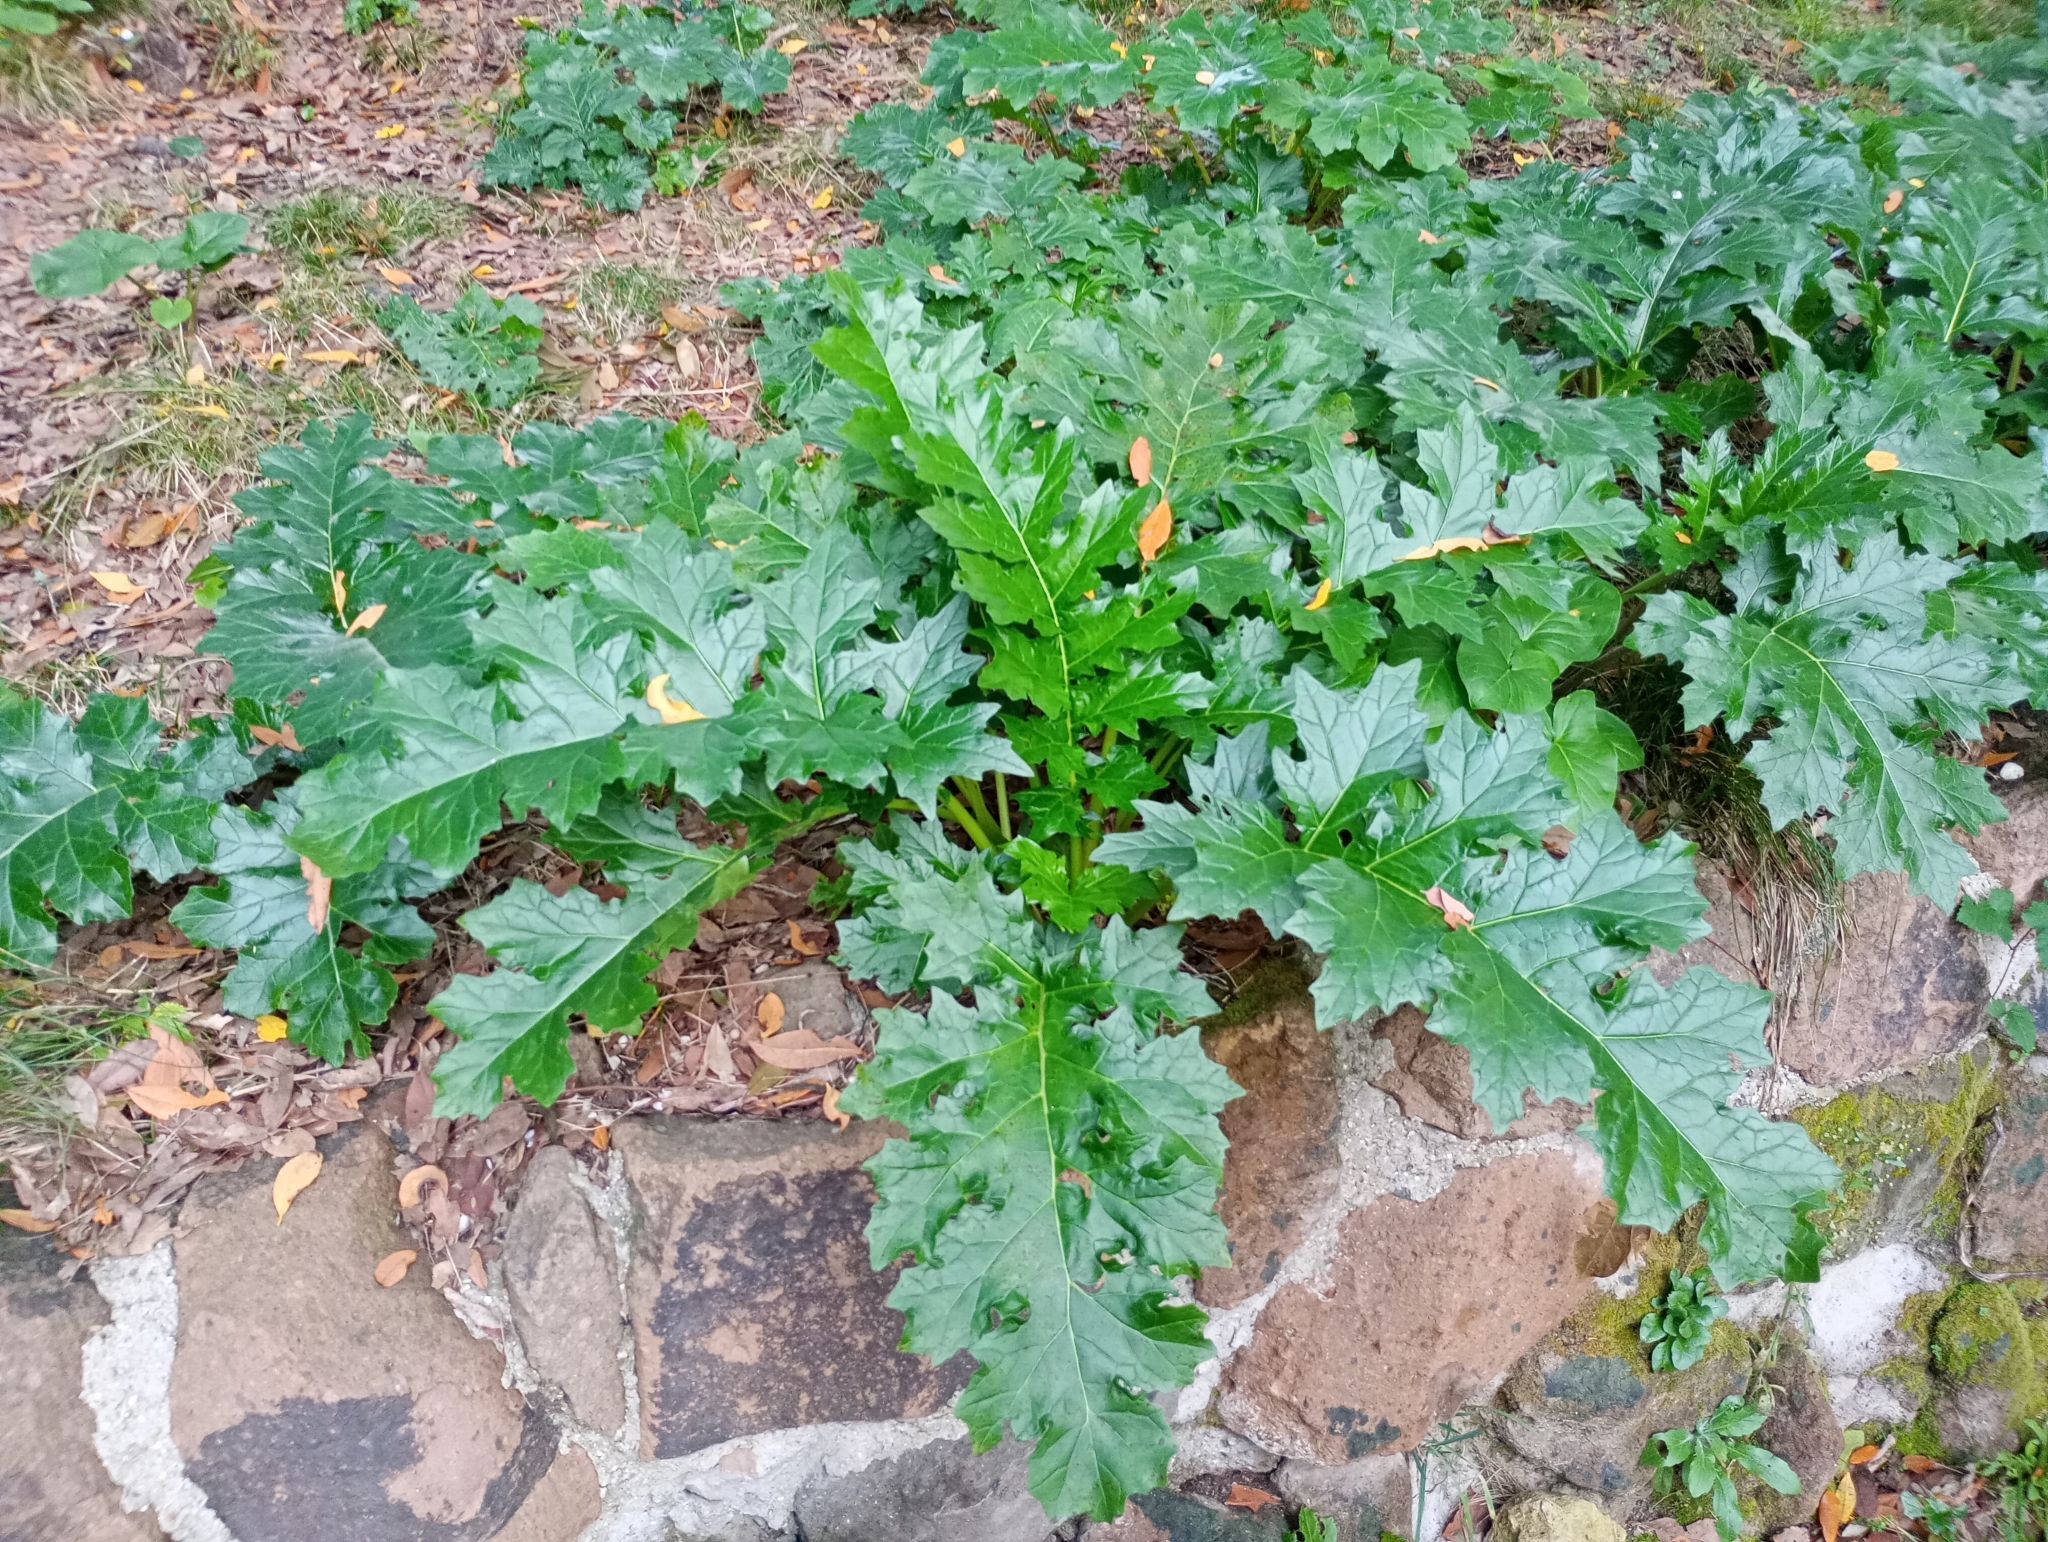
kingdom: Plantae
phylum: Tracheophyta
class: Magnoliopsida
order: Lamiales
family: Acanthaceae
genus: Acanthus
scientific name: Acanthus mollis
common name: Bear's-breech
